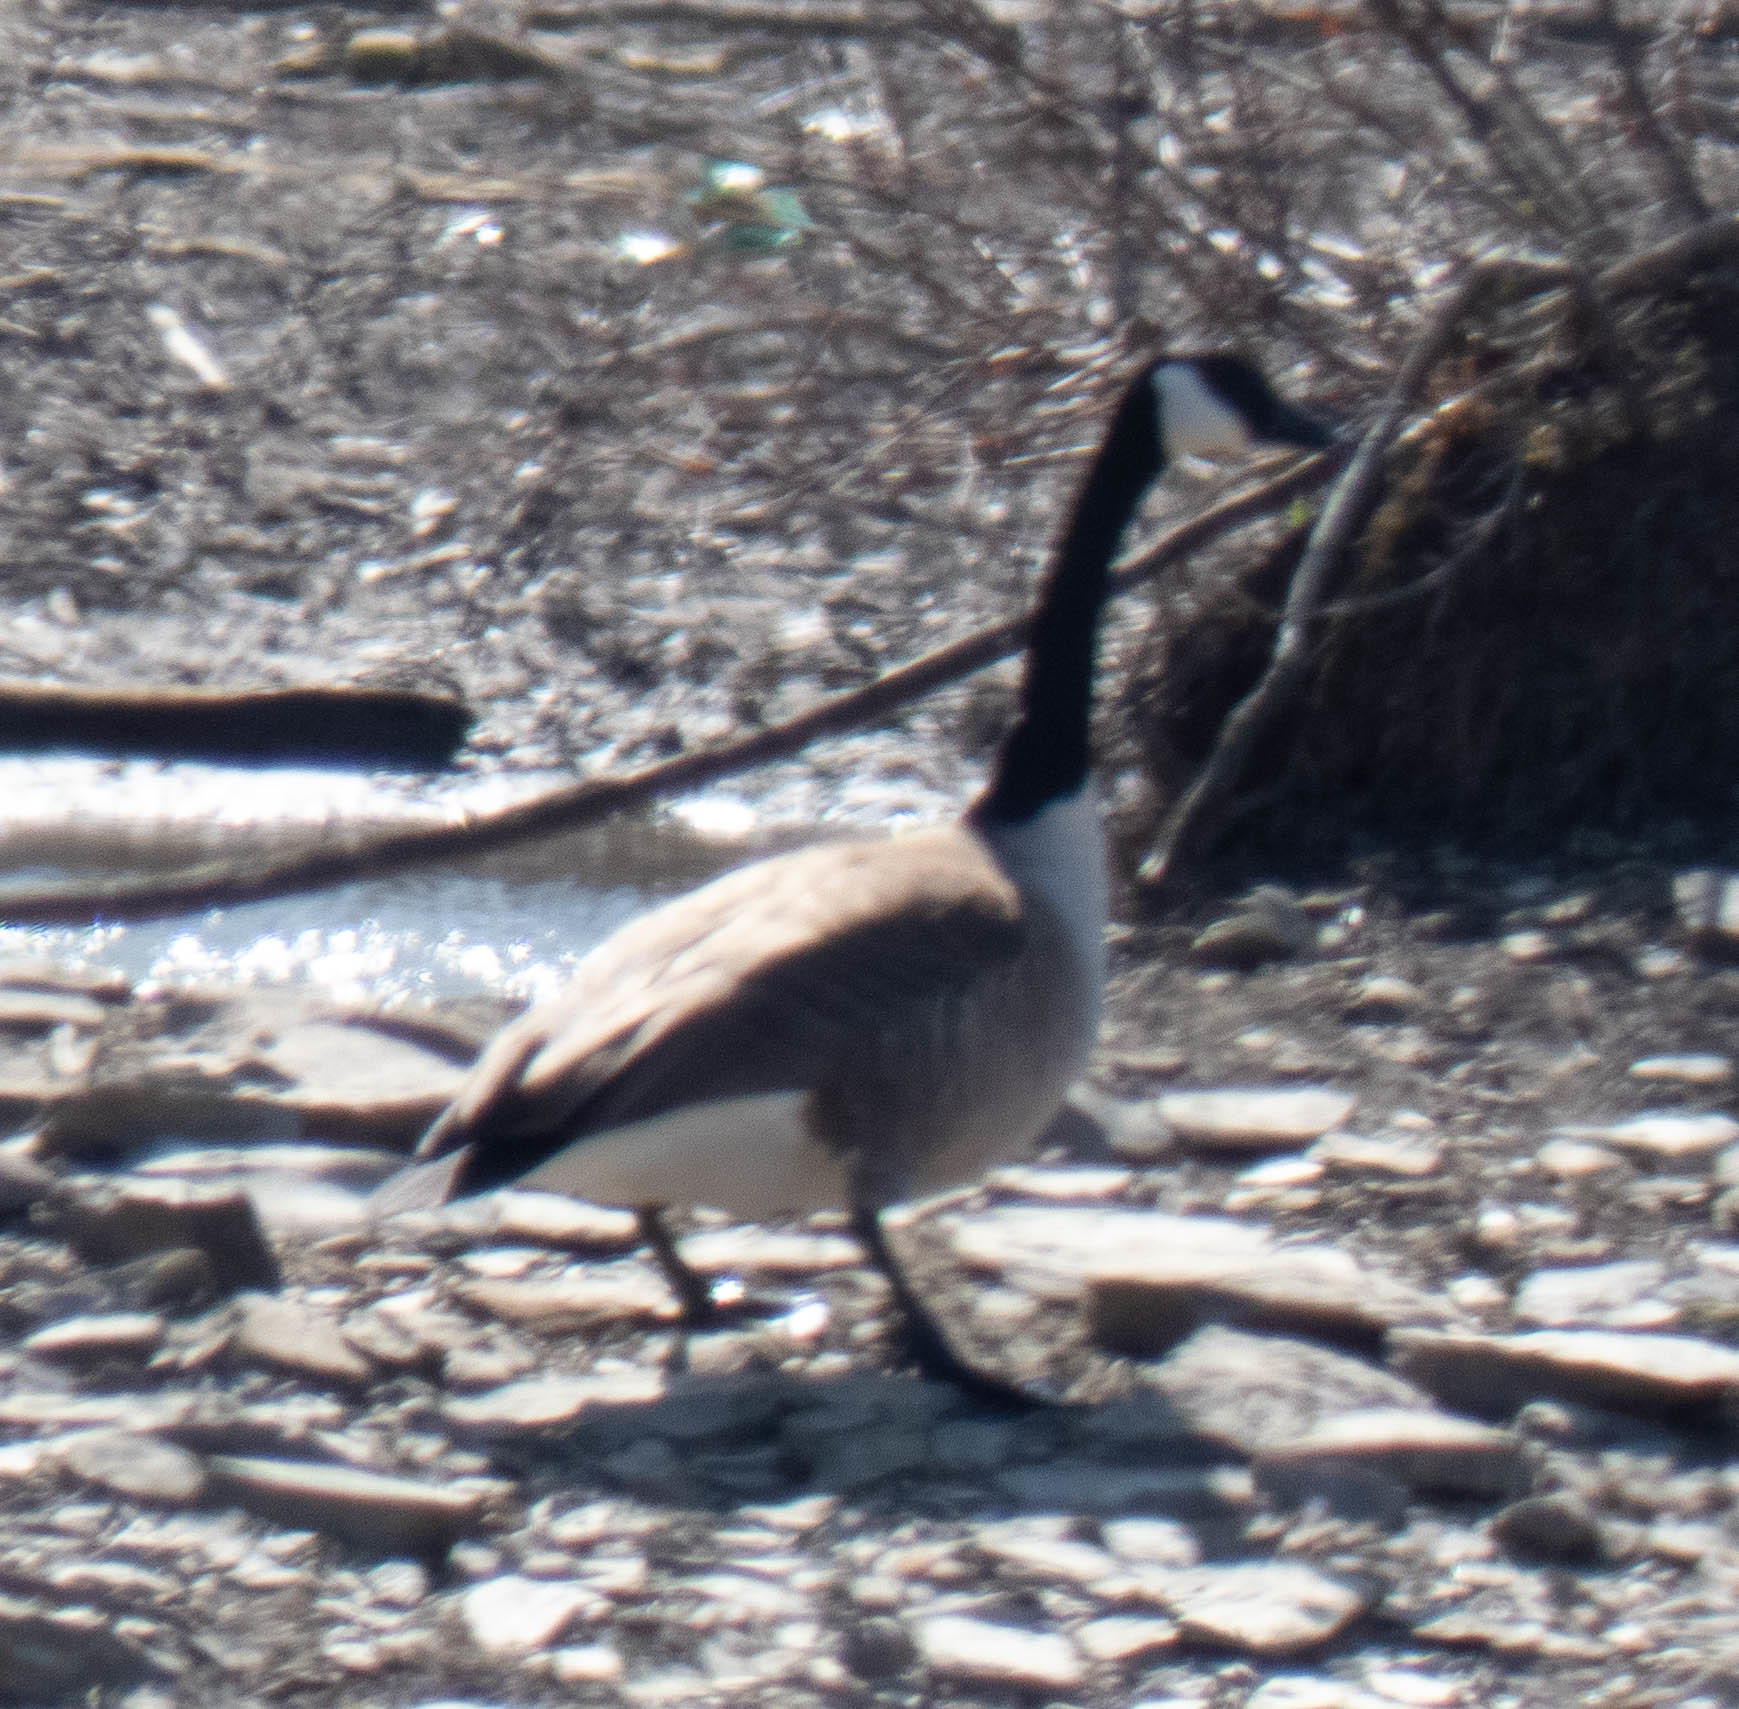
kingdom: Animalia
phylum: Chordata
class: Aves
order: Anseriformes
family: Anatidae
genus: Branta
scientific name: Branta canadensis
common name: Canada goose
